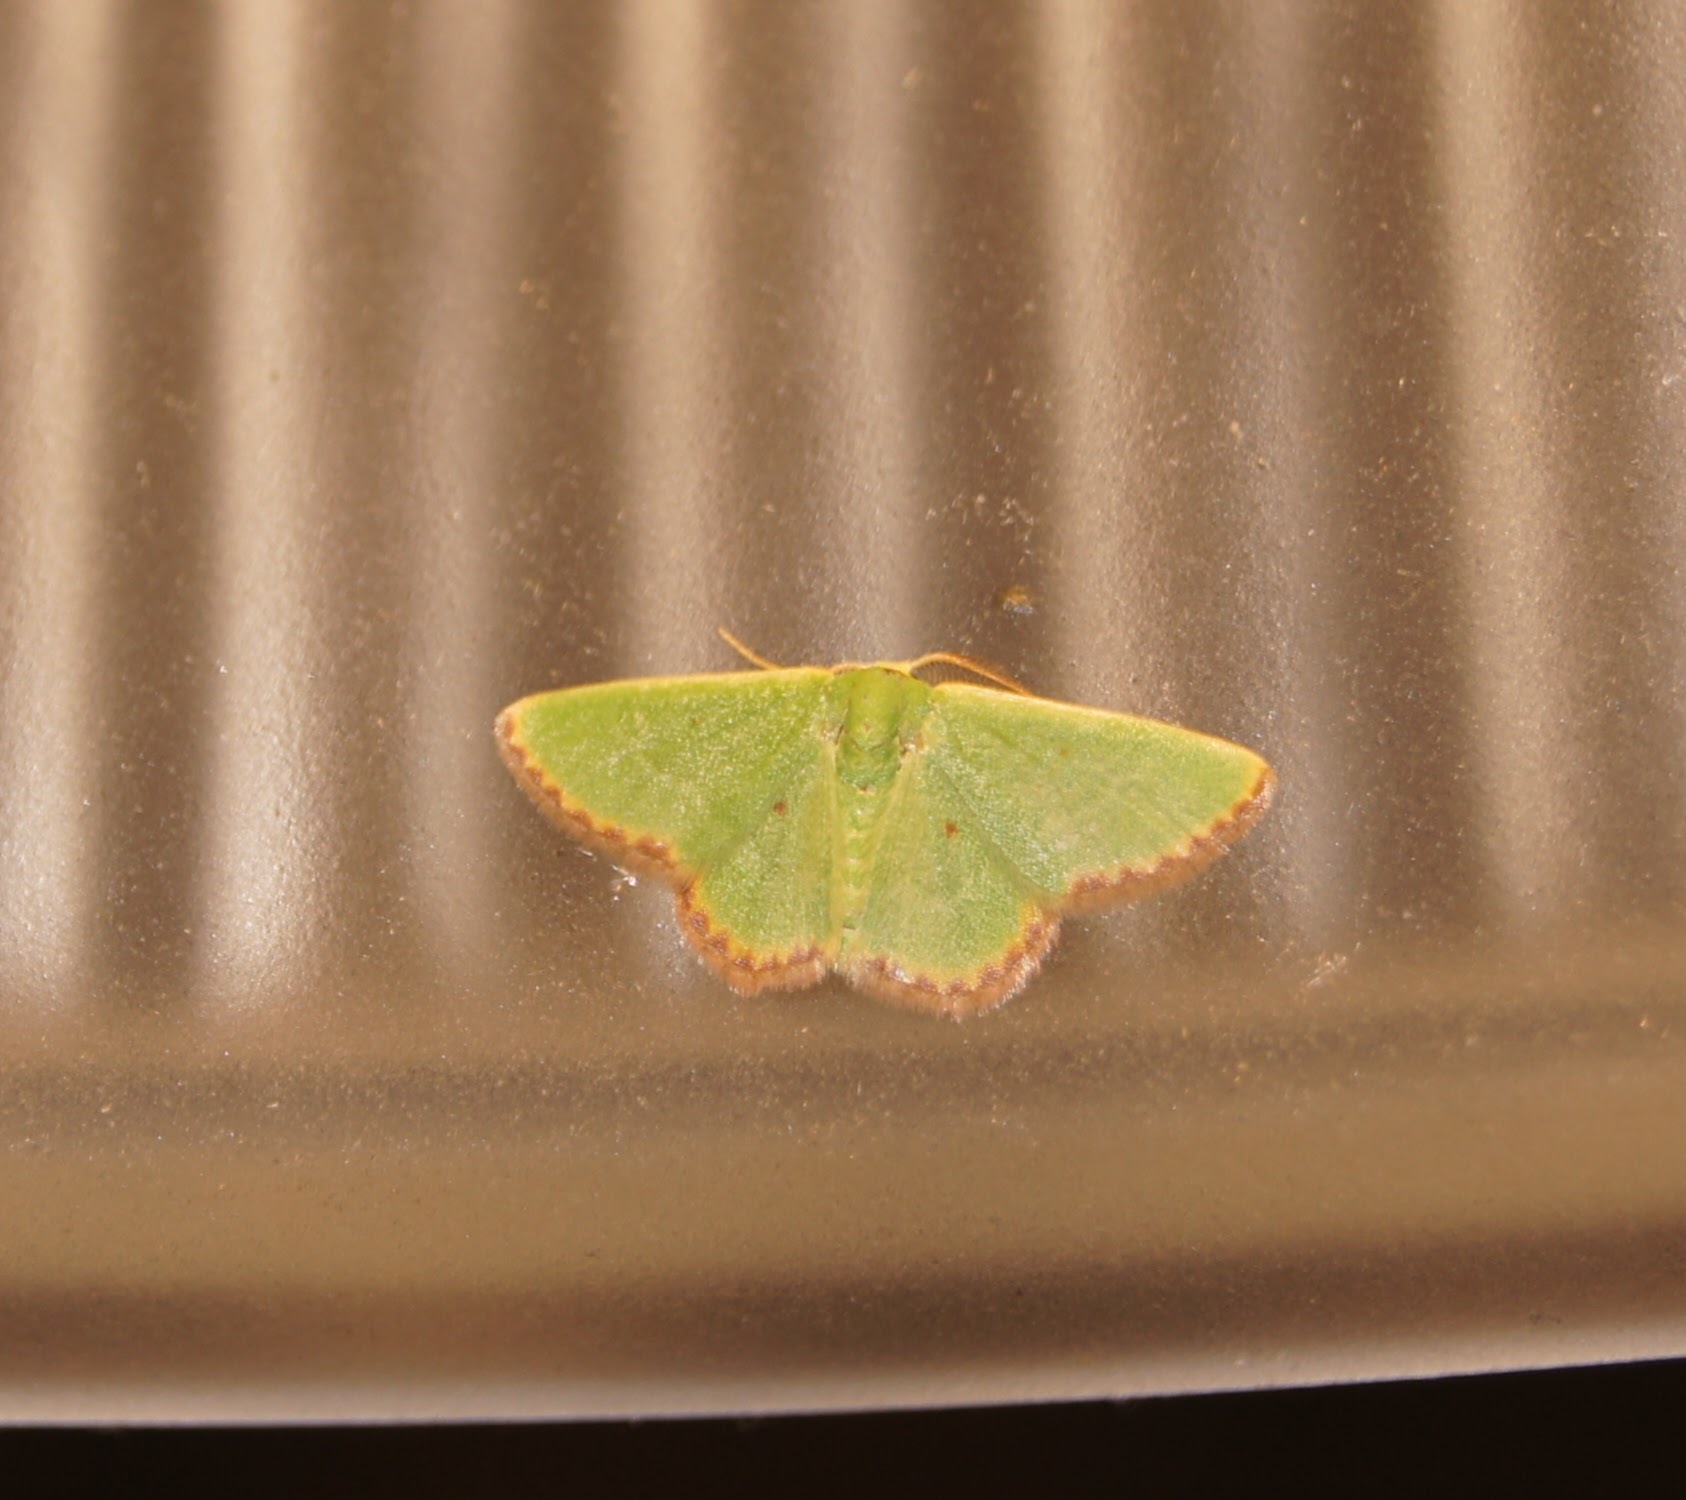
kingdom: Animalia
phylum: Arthropoda
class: Insecta
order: Lepidoptera
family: Geometridae
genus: Eucrostes
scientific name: Eucrostes indigenata
